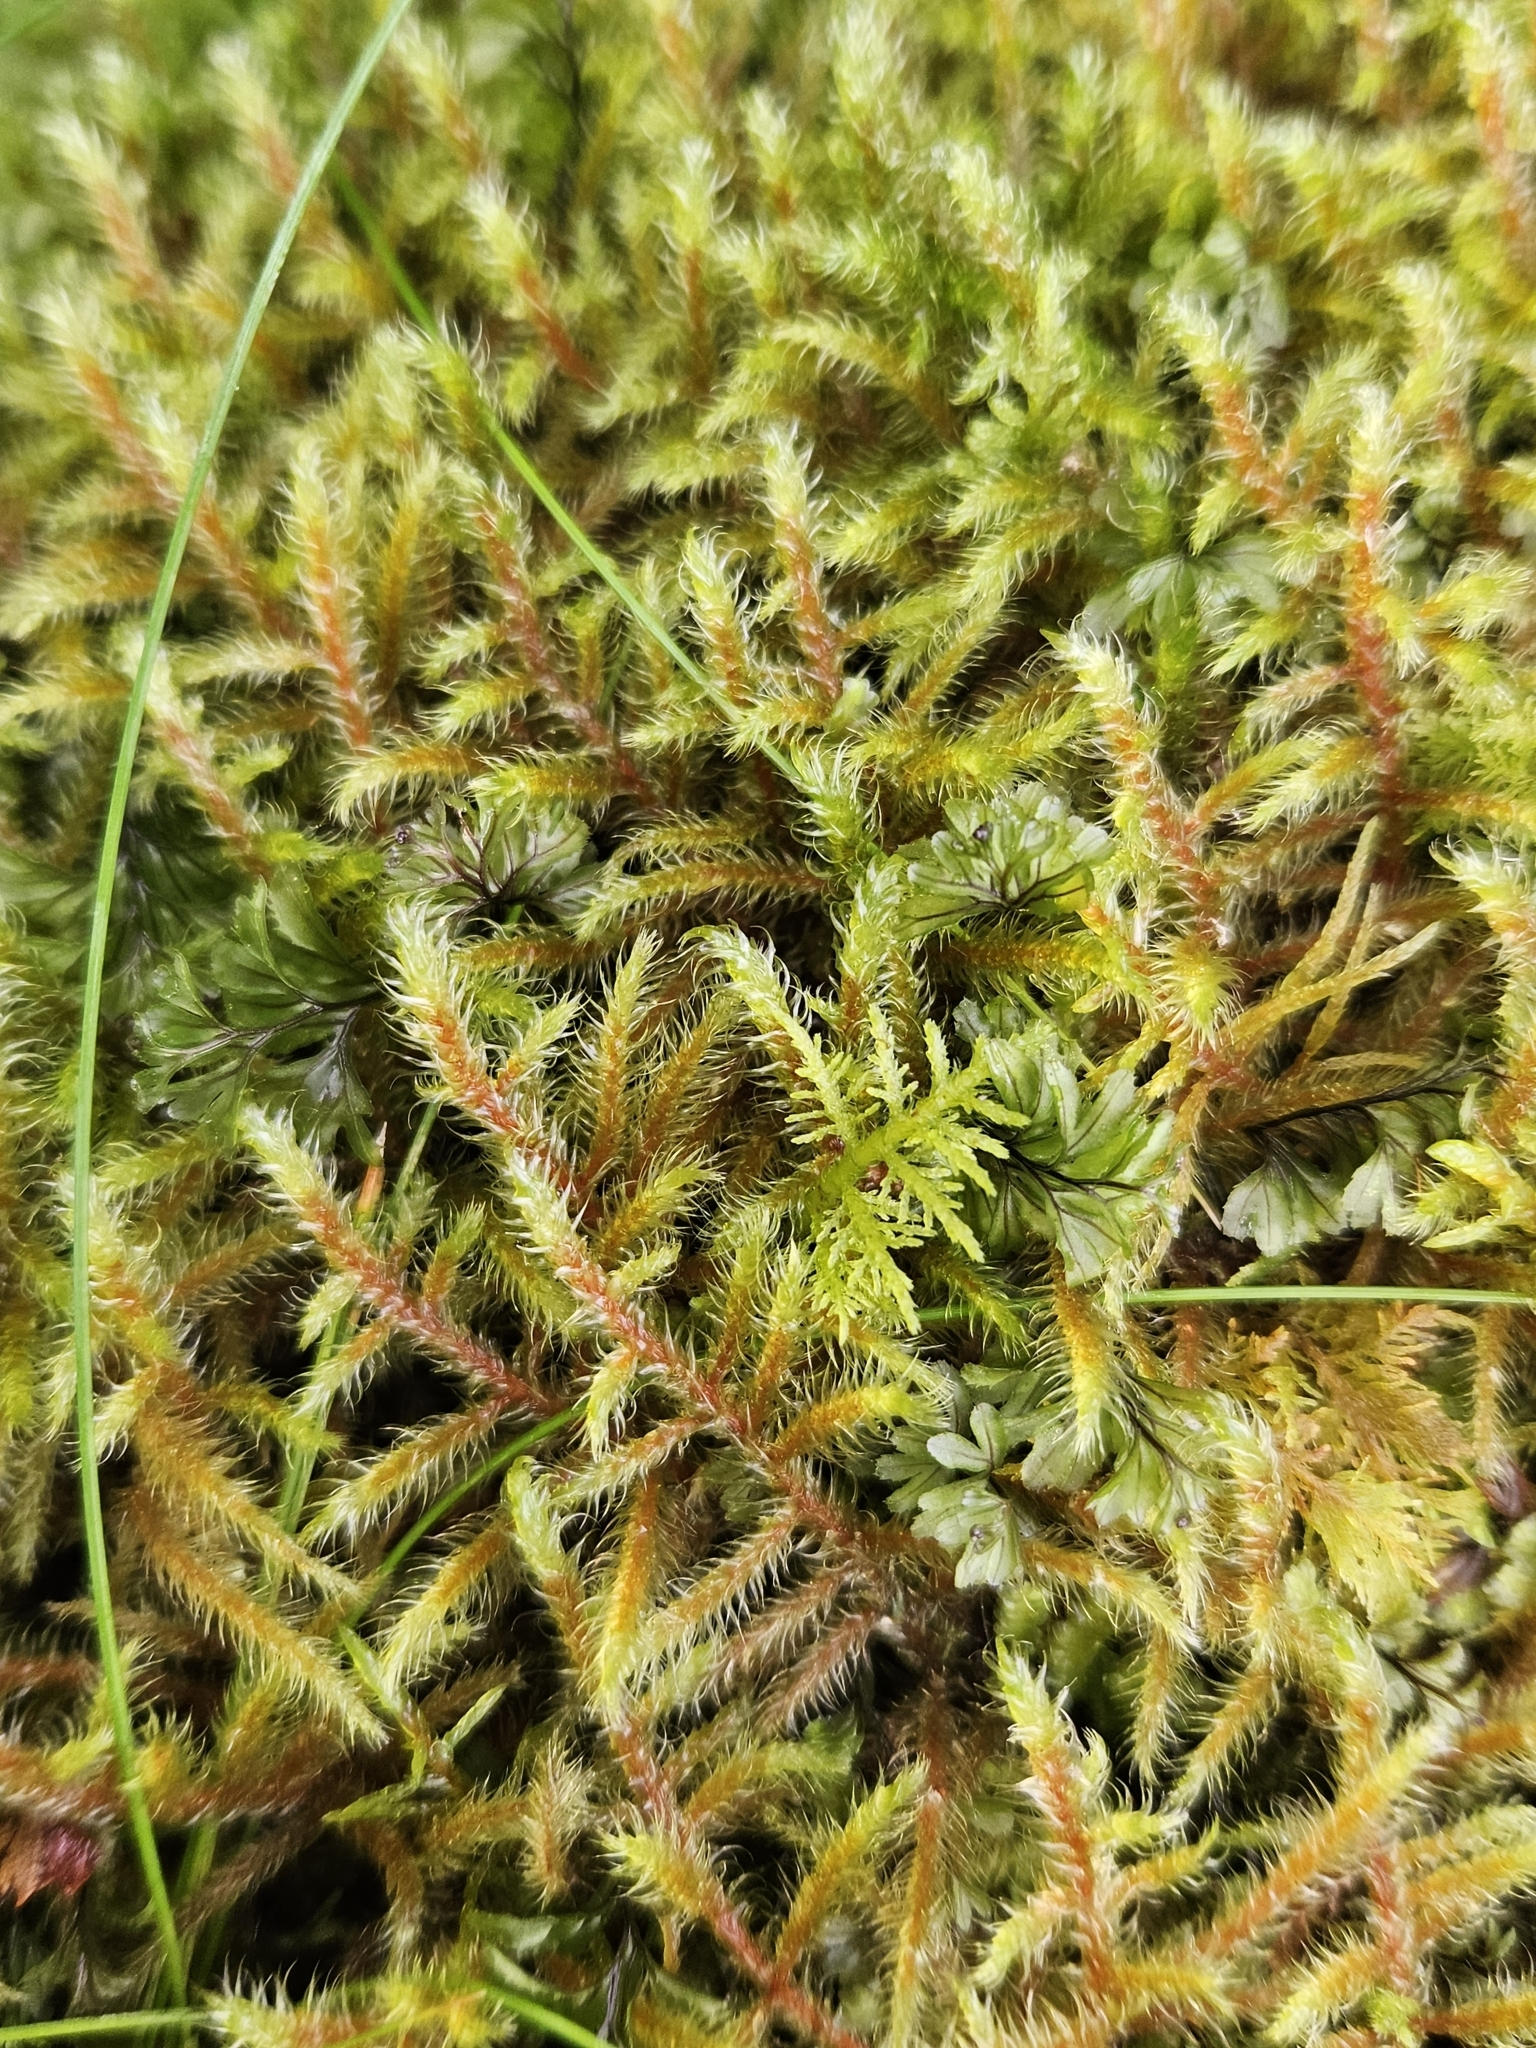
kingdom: Plantae
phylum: Bryophyta
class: Bryopsida
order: Hypnales
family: Hylocomiaceae
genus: Rhytidiadelphus
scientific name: Rhytidiadelphus loreus
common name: Lanky moss
